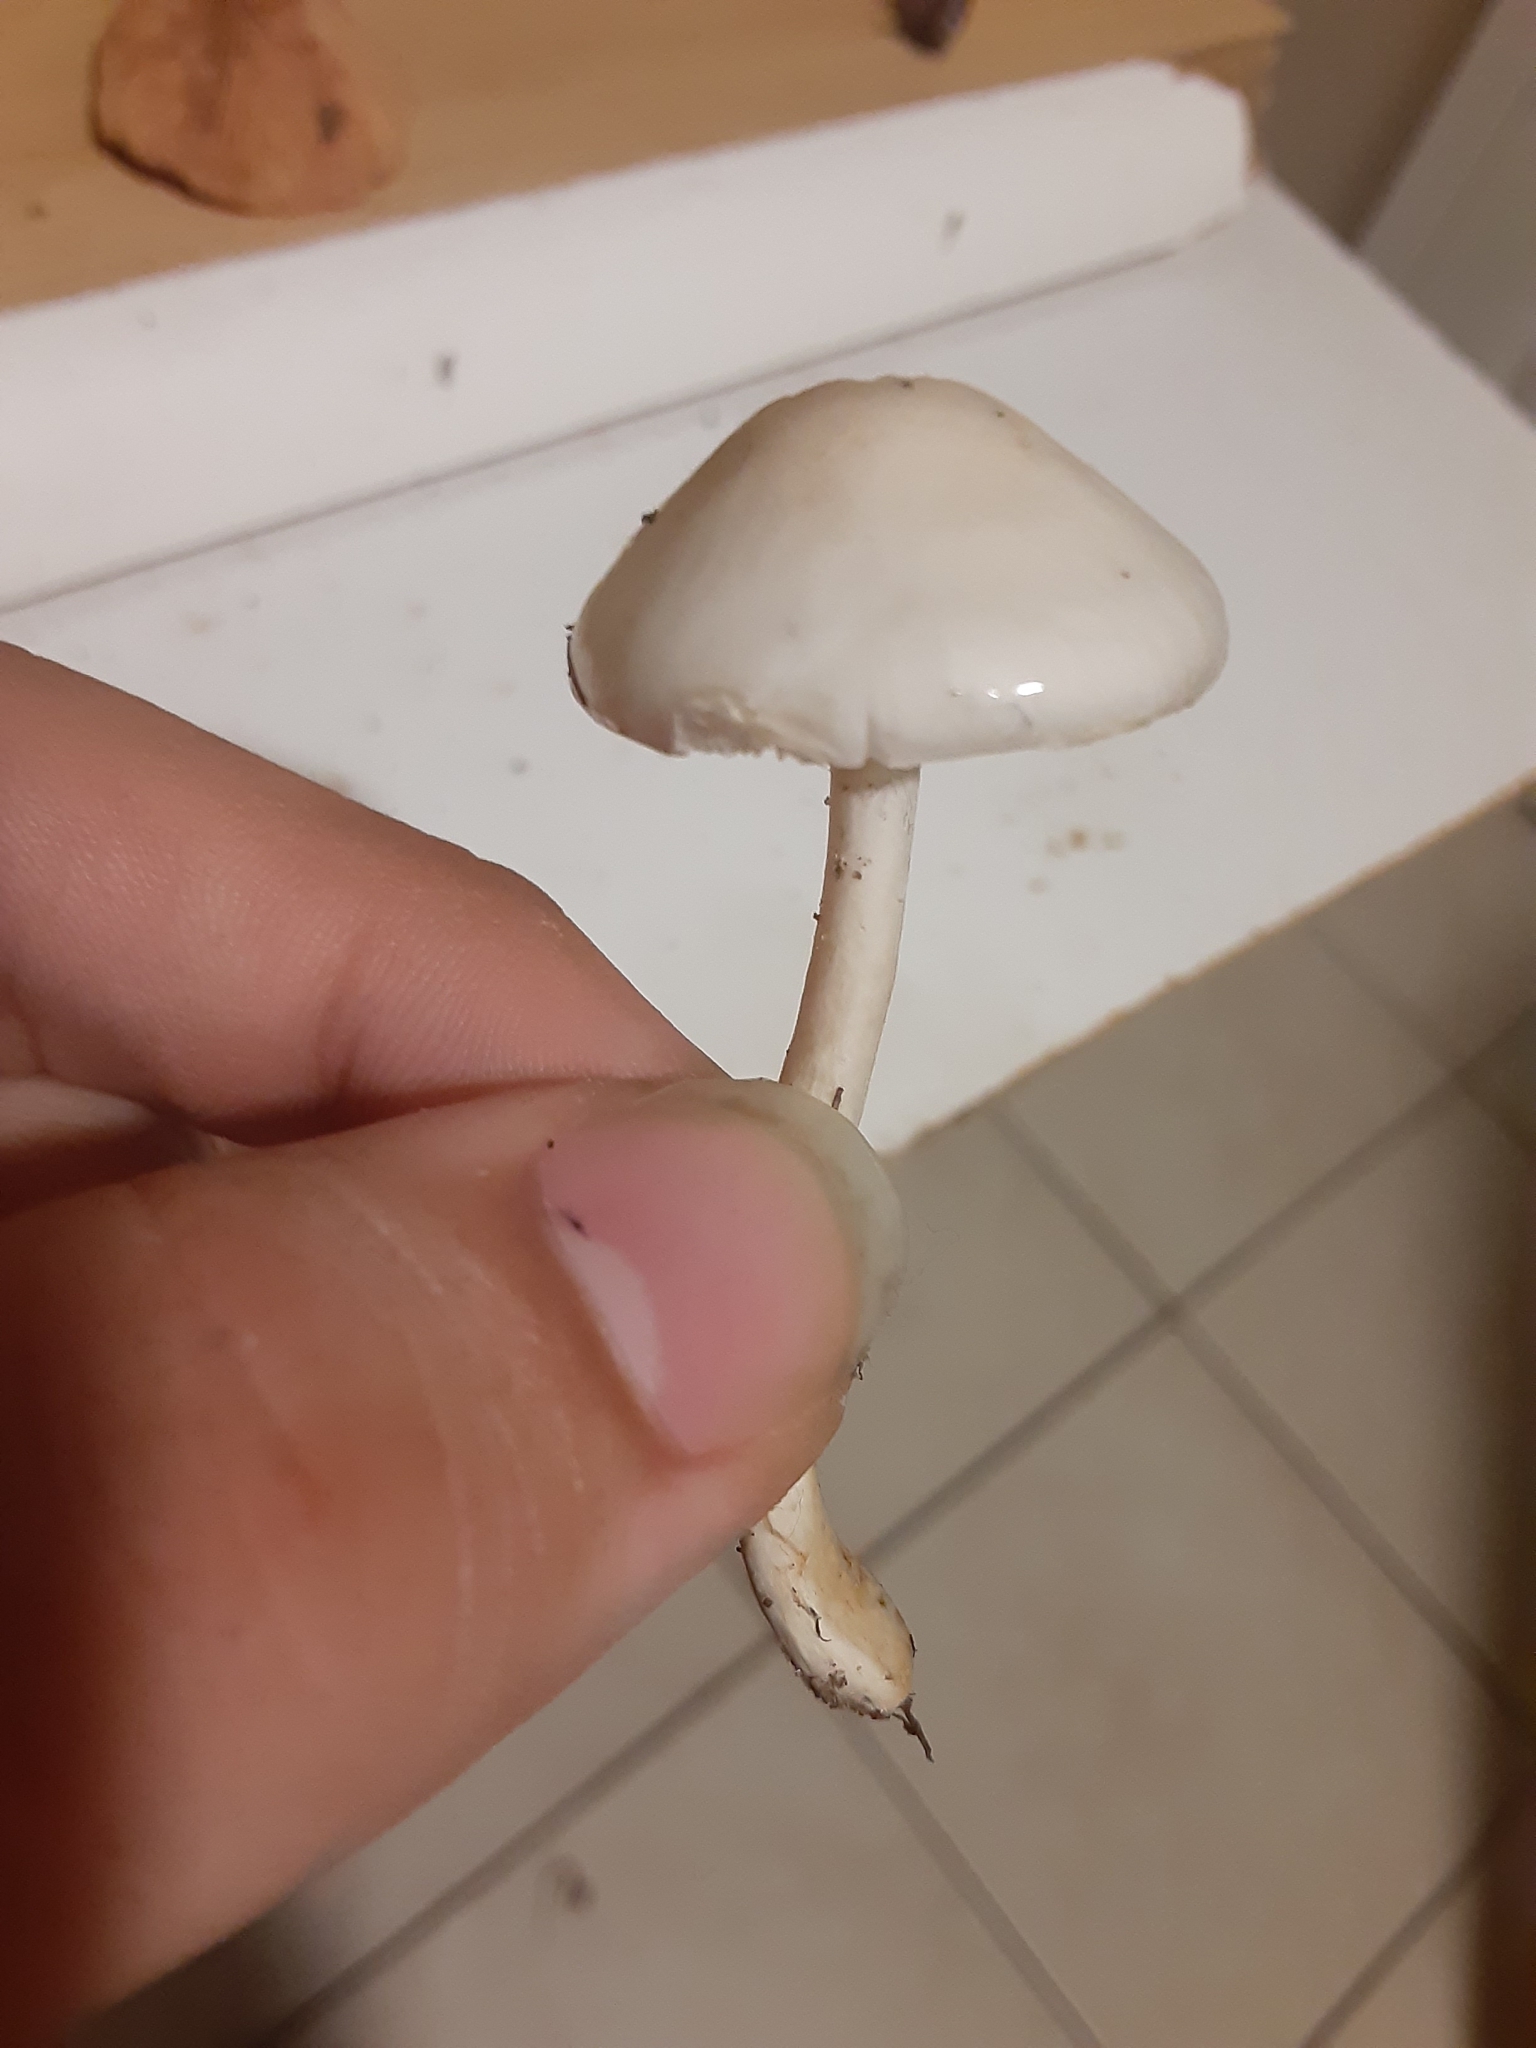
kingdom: Fungi
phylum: Basidiomycota
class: Agaricomycetes
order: Agaricales
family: Amanitaceae
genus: Zhuliangomyces
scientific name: Zhuliangomyces subillinitus
